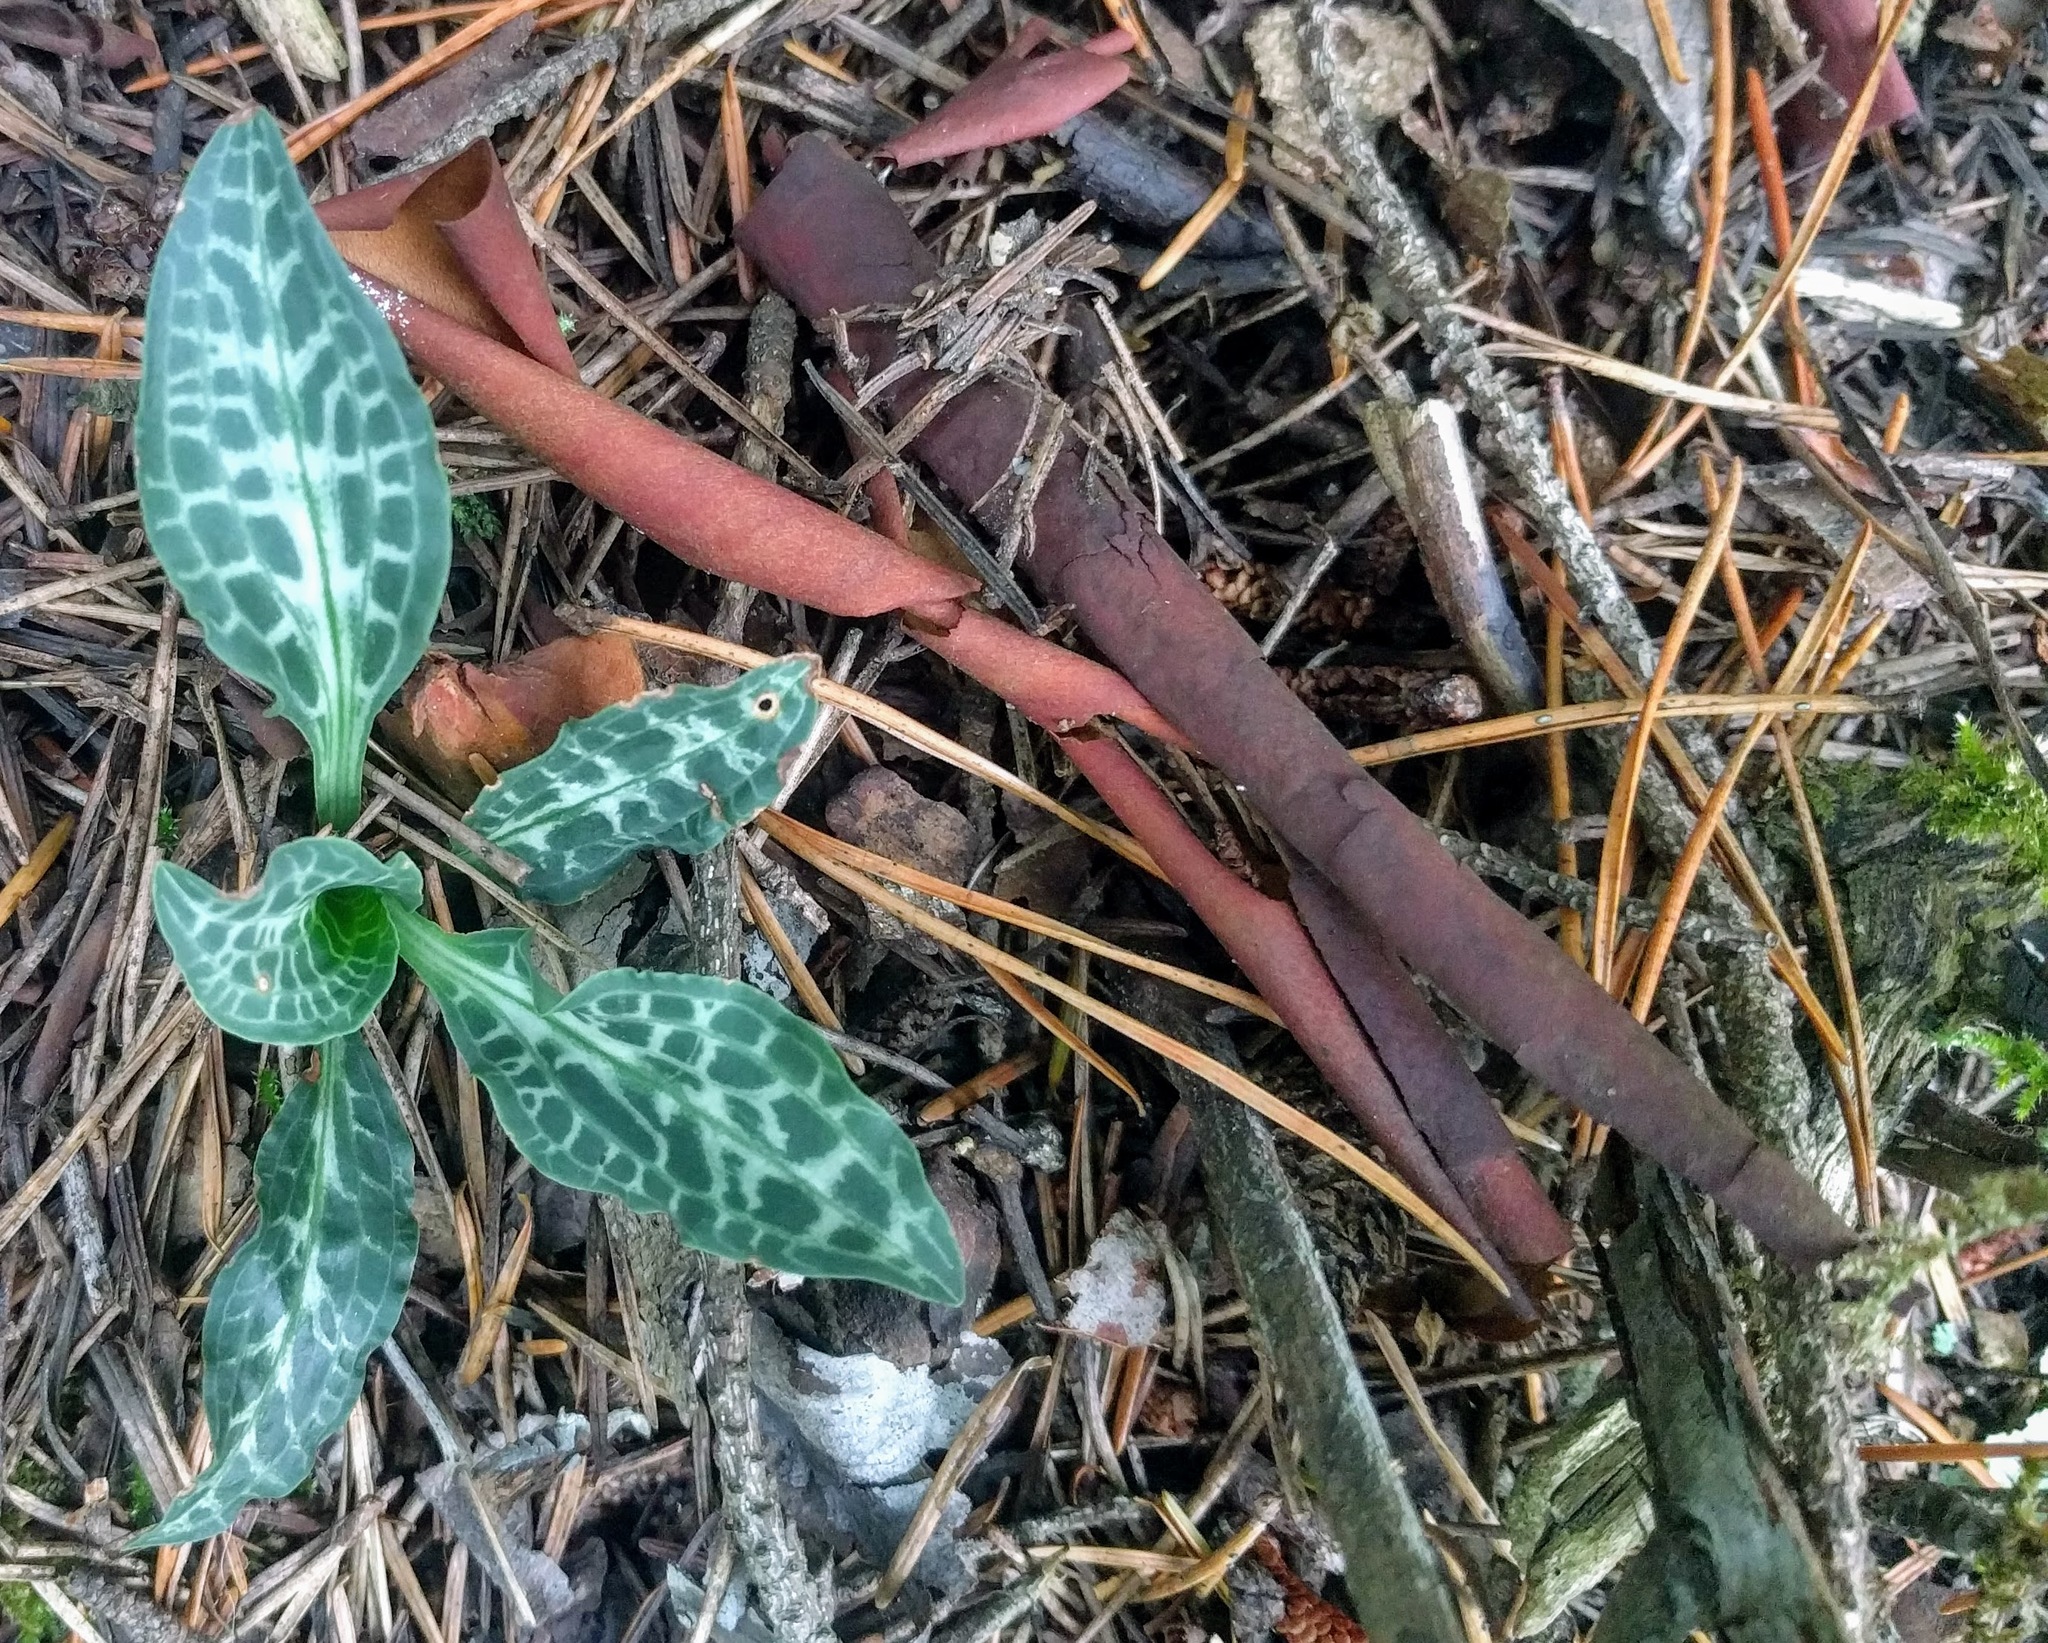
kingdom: Plantae
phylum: Tracheophyta
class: Liliopsida
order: Asparagales
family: Orchidaceae
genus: Goodyera
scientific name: Goodyera oblongifolia
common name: Giant rattlesnake-plantain
